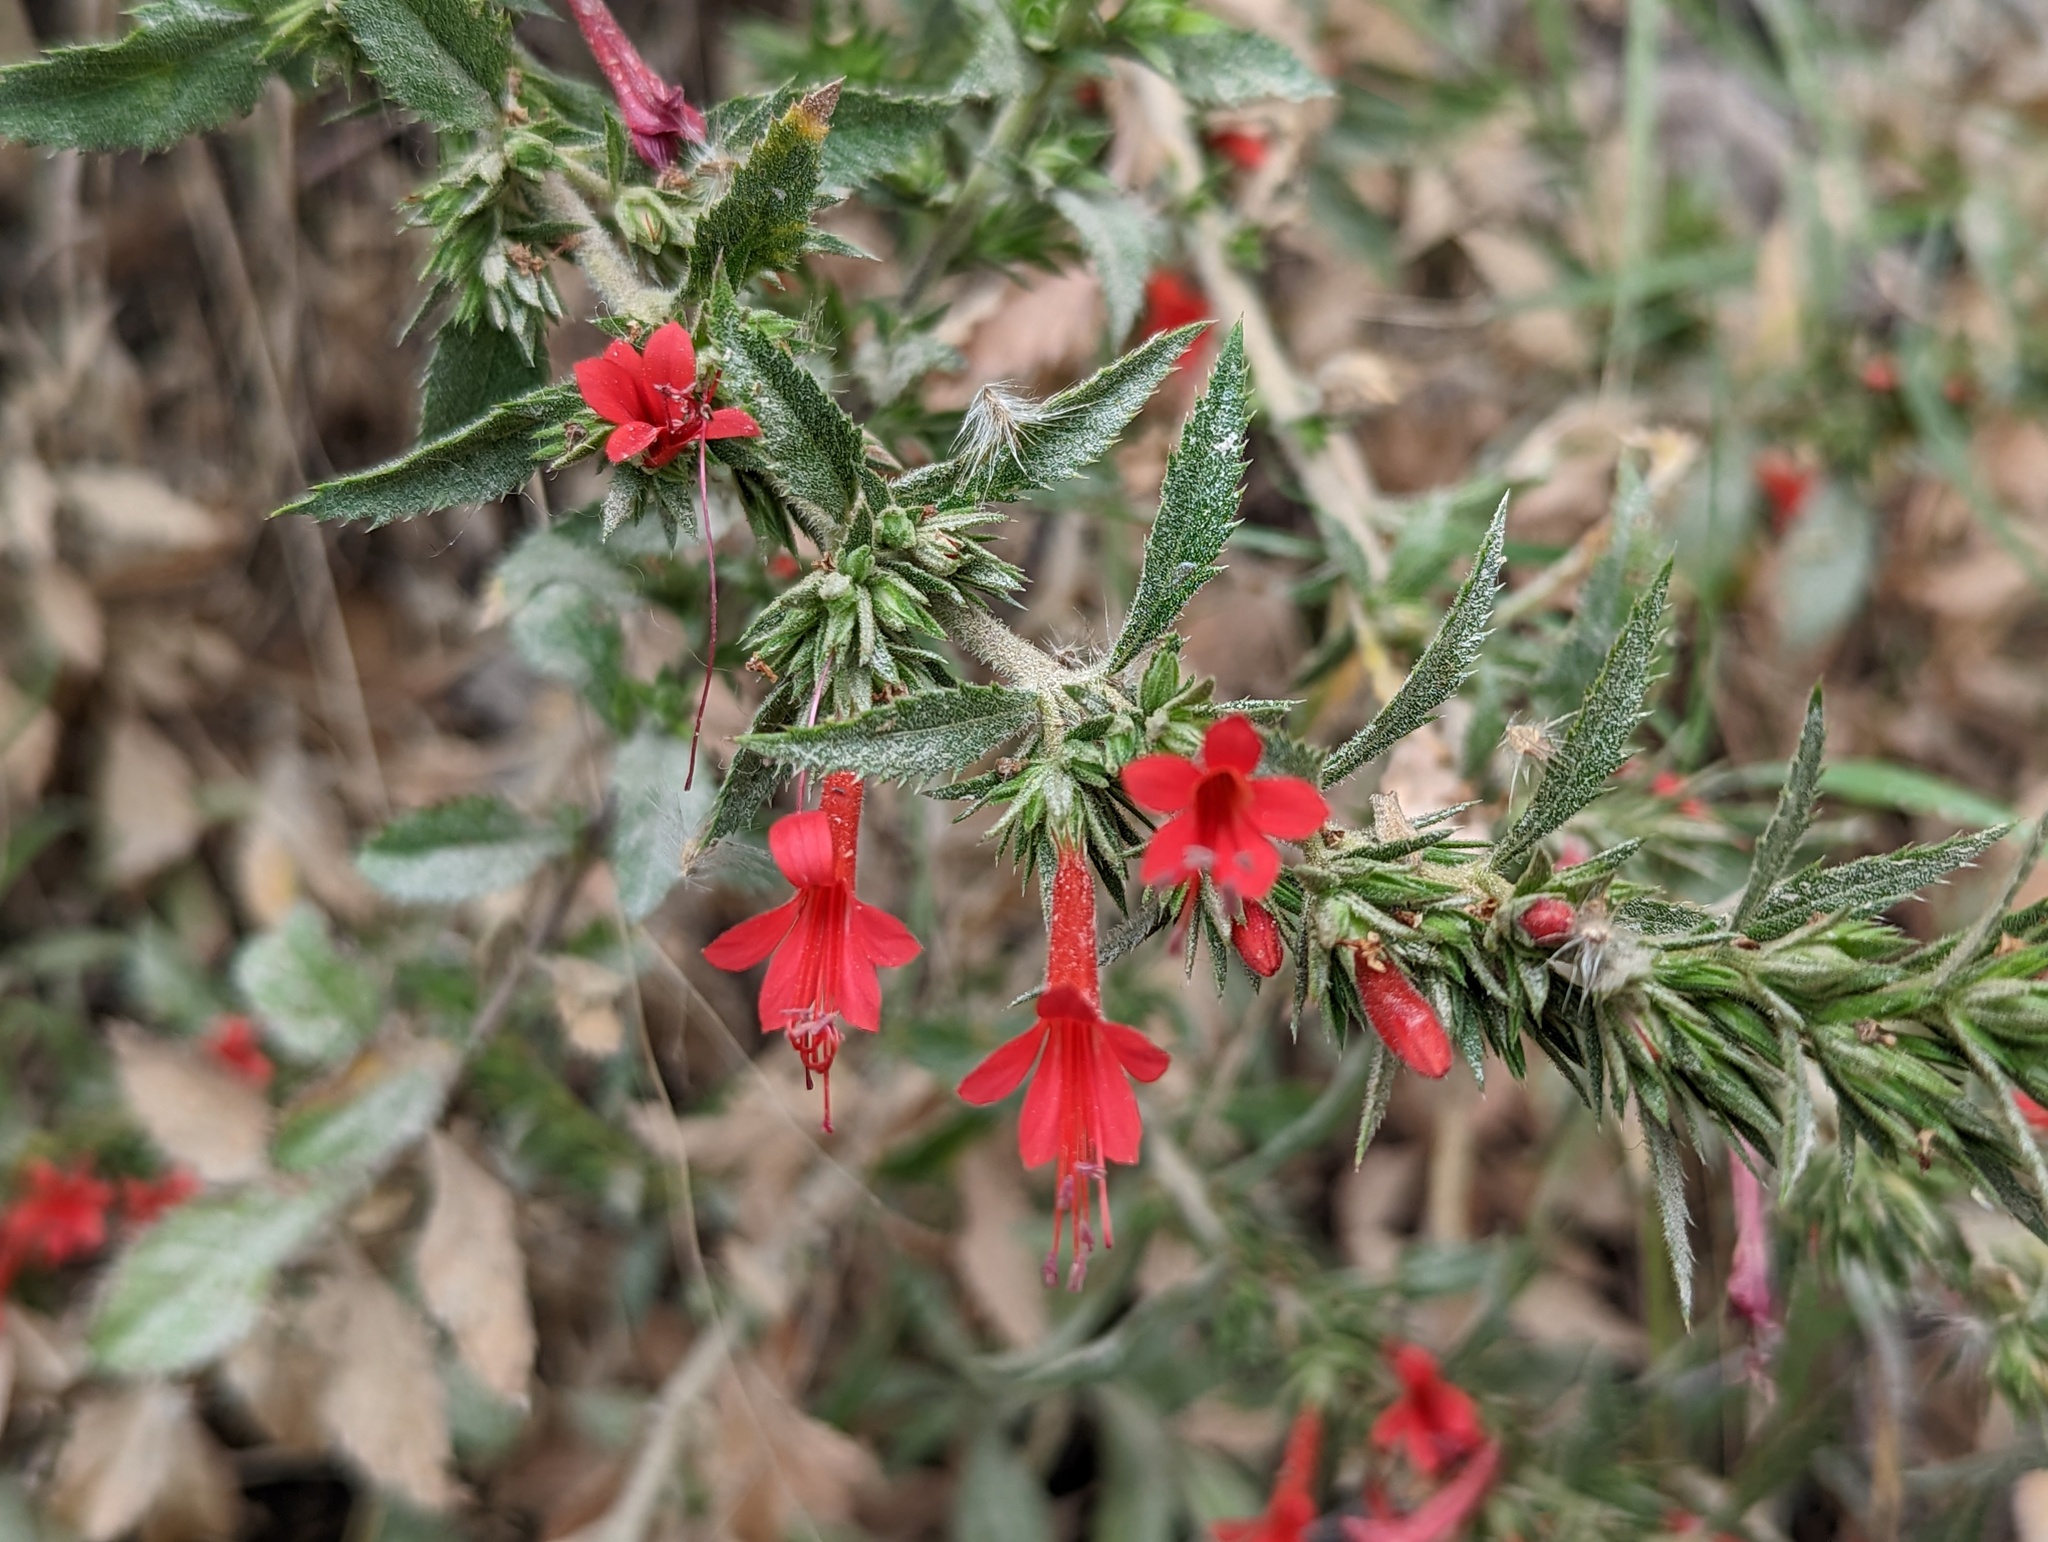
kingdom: Plantae
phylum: Tracheophyta
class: Magnoliopsida
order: Ericales
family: Polemoniaceae
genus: Loeselia
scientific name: Loeselia mexicana
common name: Mexican false calico
